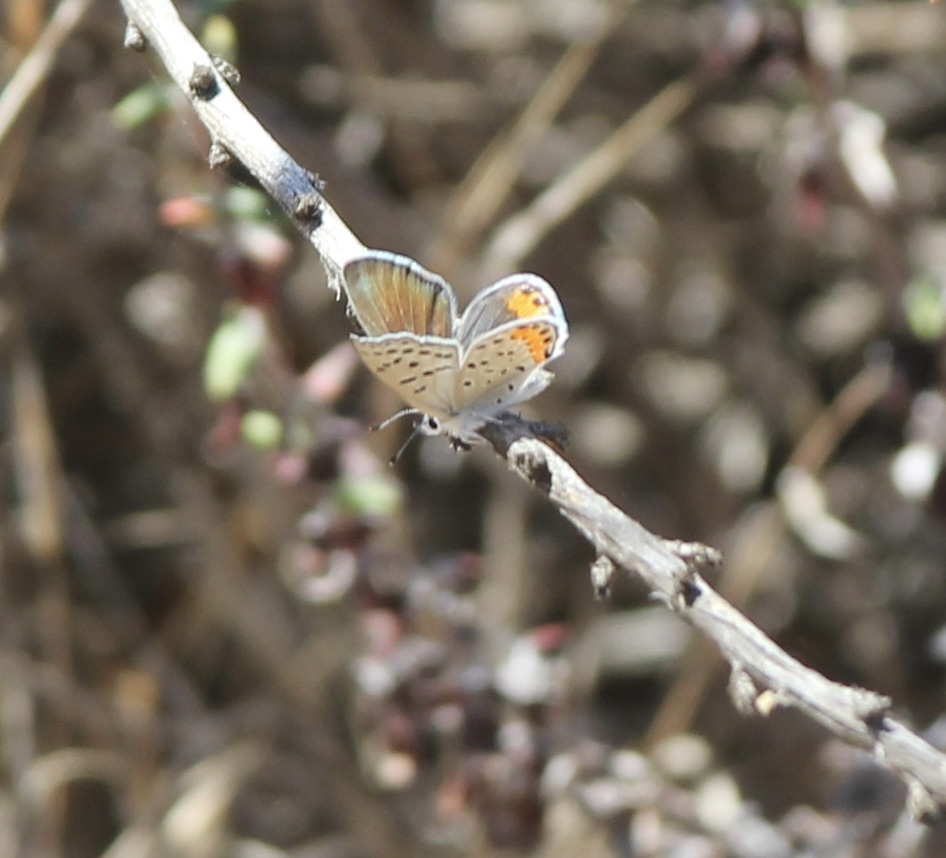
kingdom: Animalia
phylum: Arthropoda
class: Insecta
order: Lepidoptera
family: Lycaenidae
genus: Icaricia
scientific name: Icaricia acmon
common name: Acmon blue
